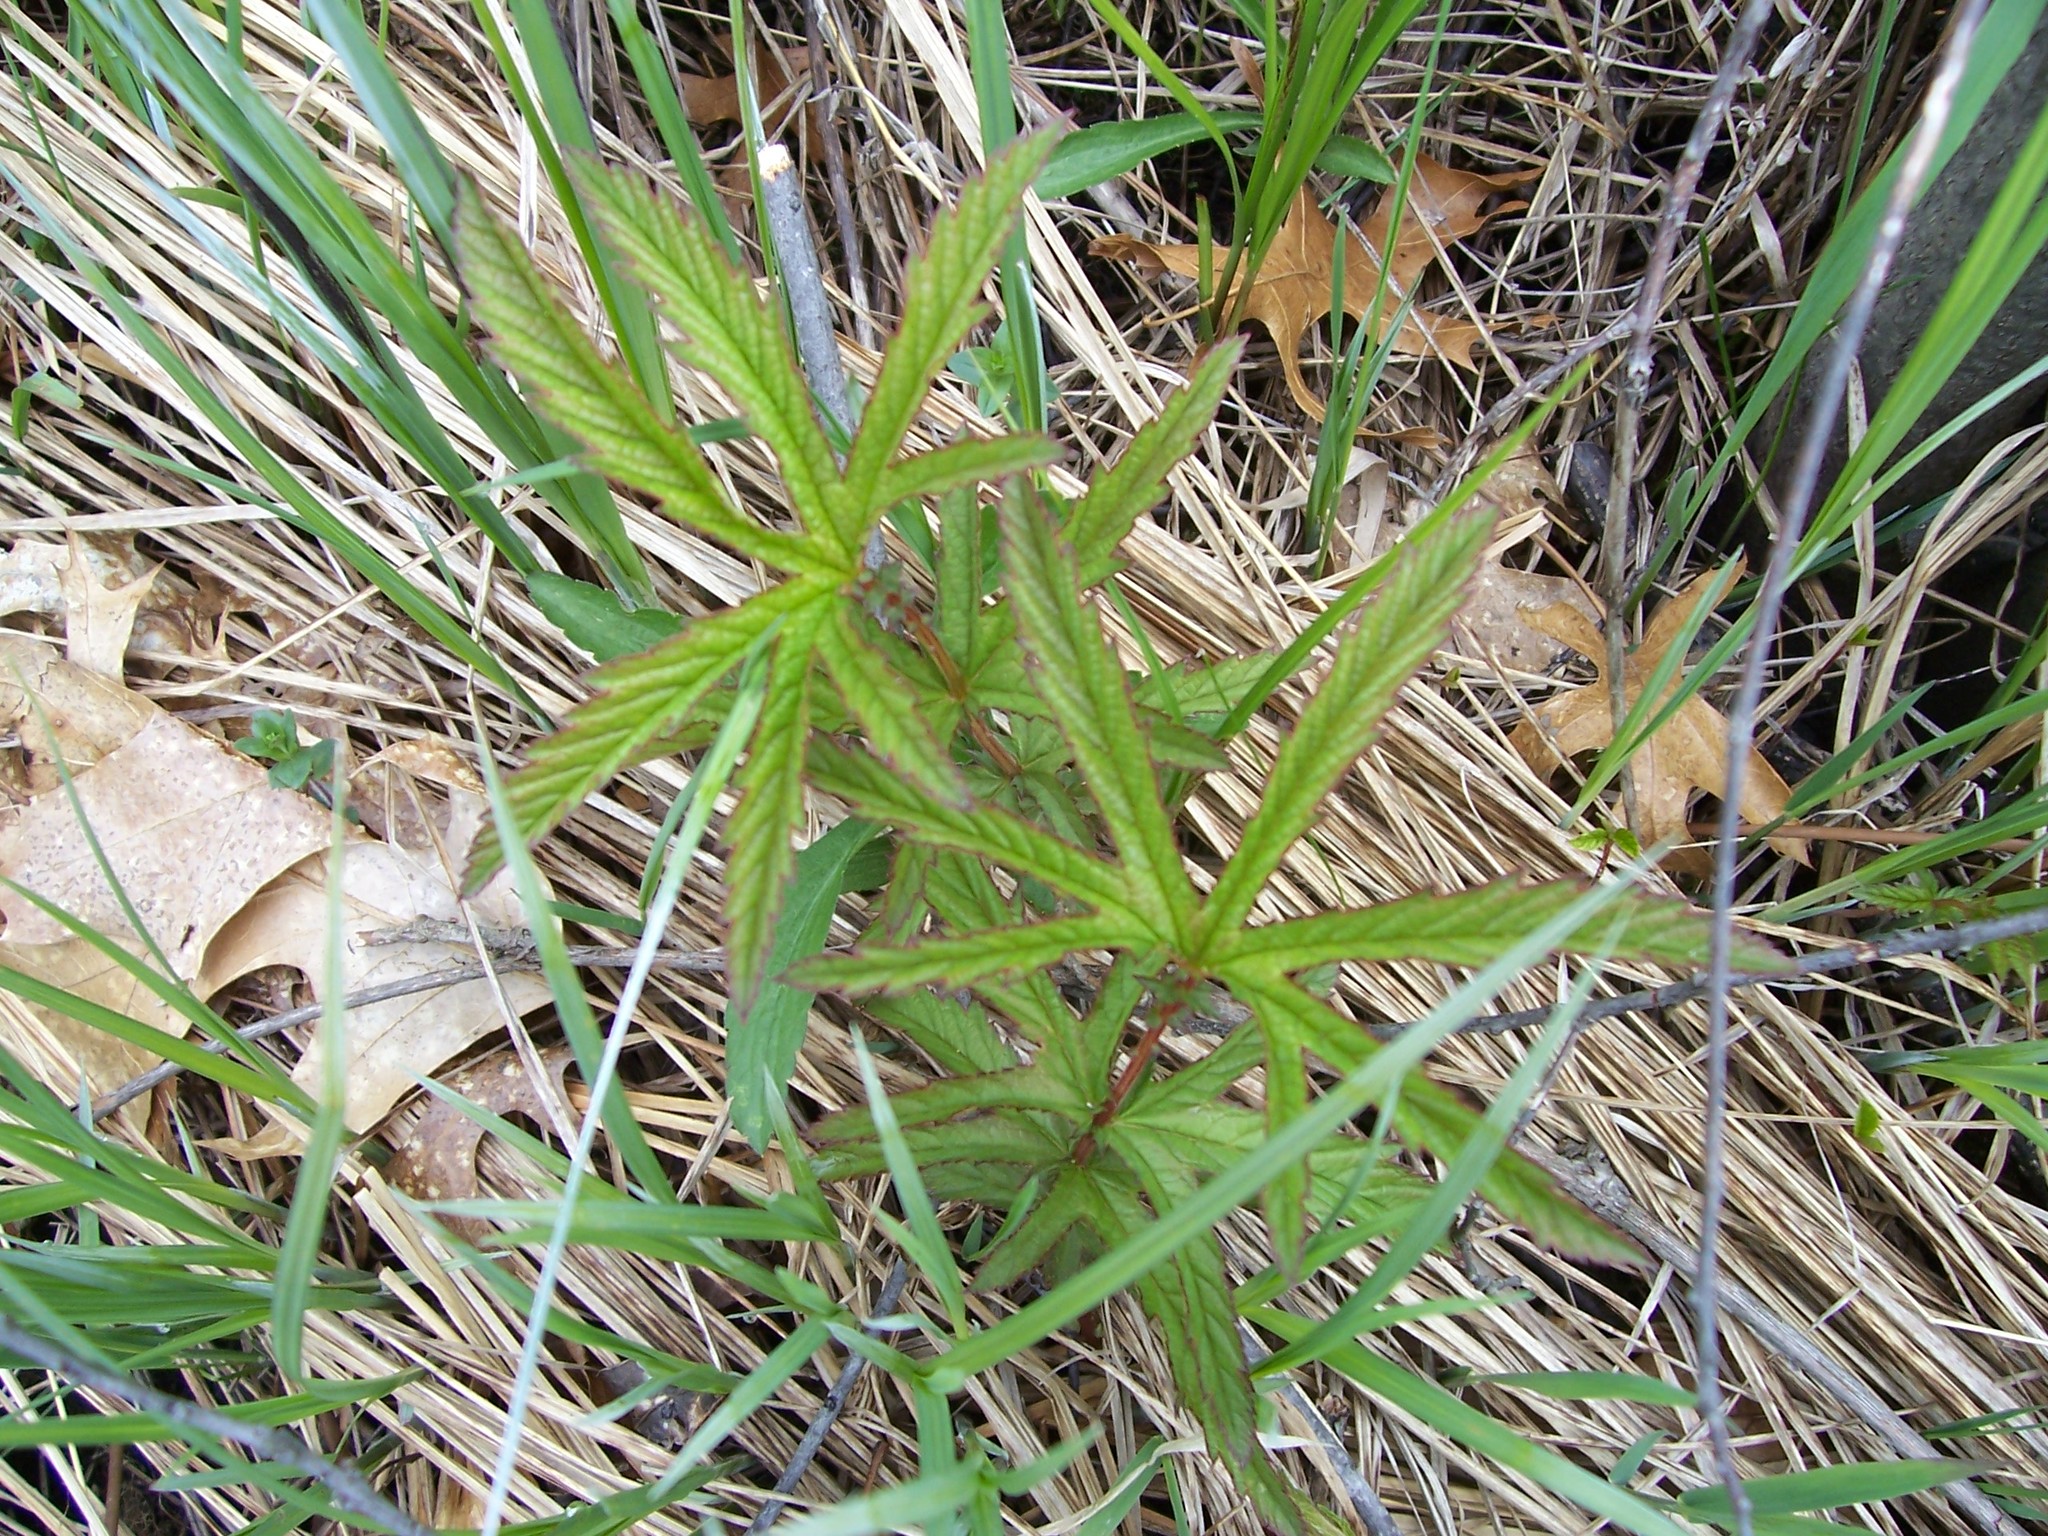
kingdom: Plantae
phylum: Tracheophyta
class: Magnoliopsida
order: Rosales
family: Rosaceae
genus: Filipendula
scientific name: Filipendula rubra
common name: Queen-of-the-prairie
